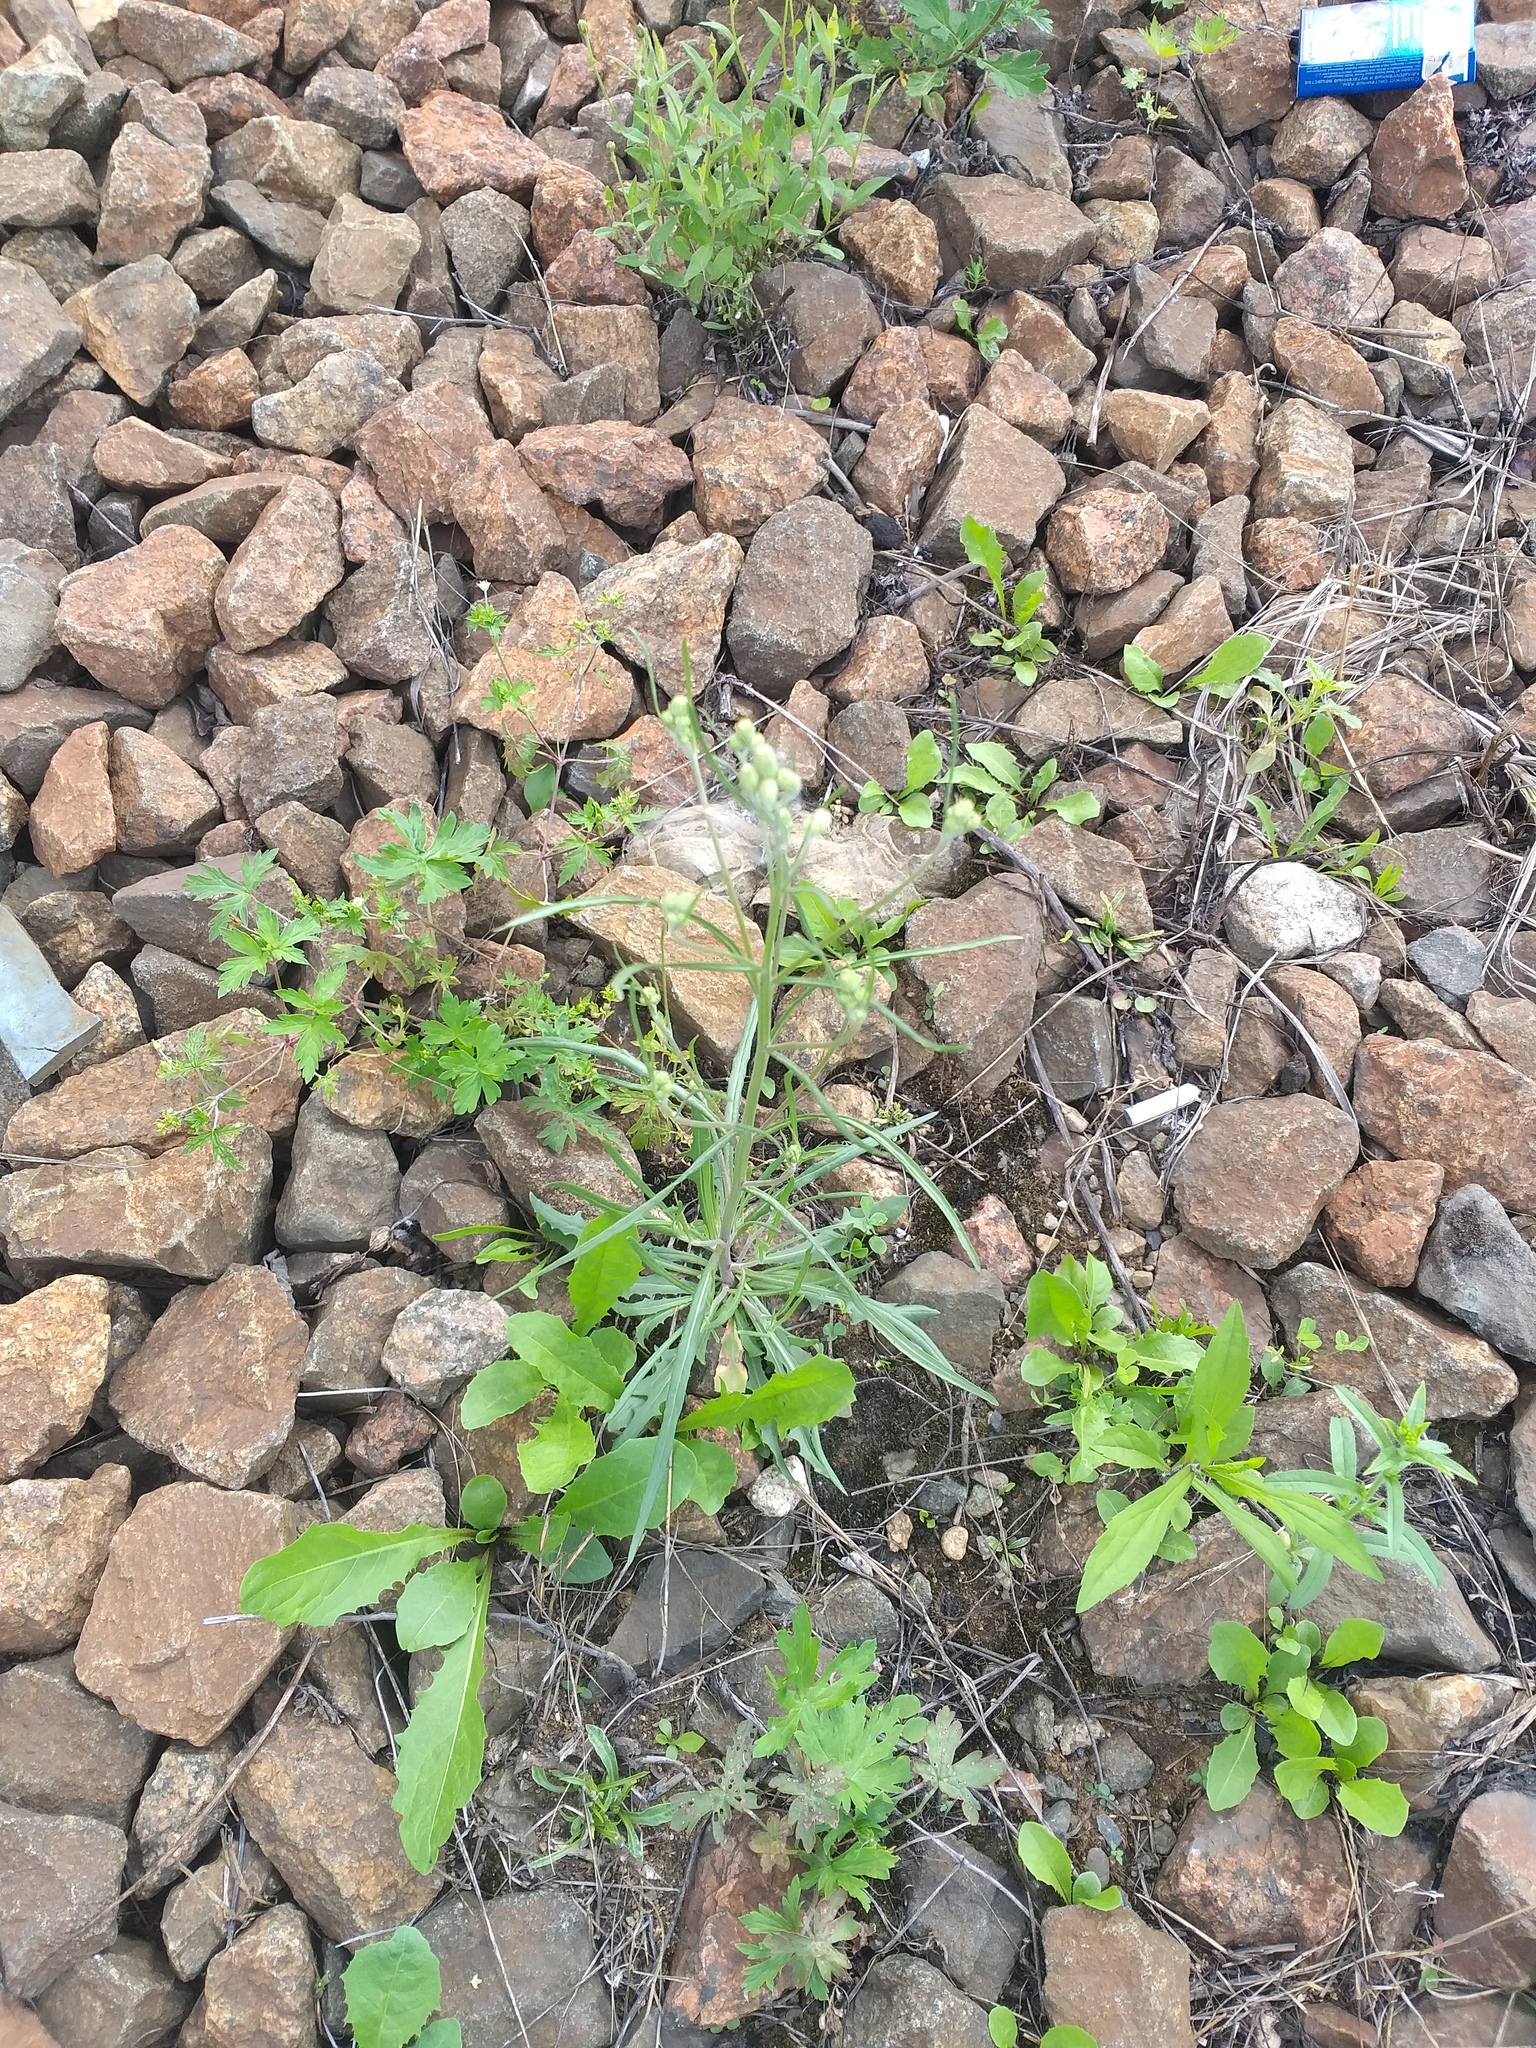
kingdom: Plantae
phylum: Tracheophyta
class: Magnoliopsida
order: Asterales
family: Asteraceae
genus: Crepis
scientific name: Crepis tectorum
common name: Narrow-leaved hawk's-beard
